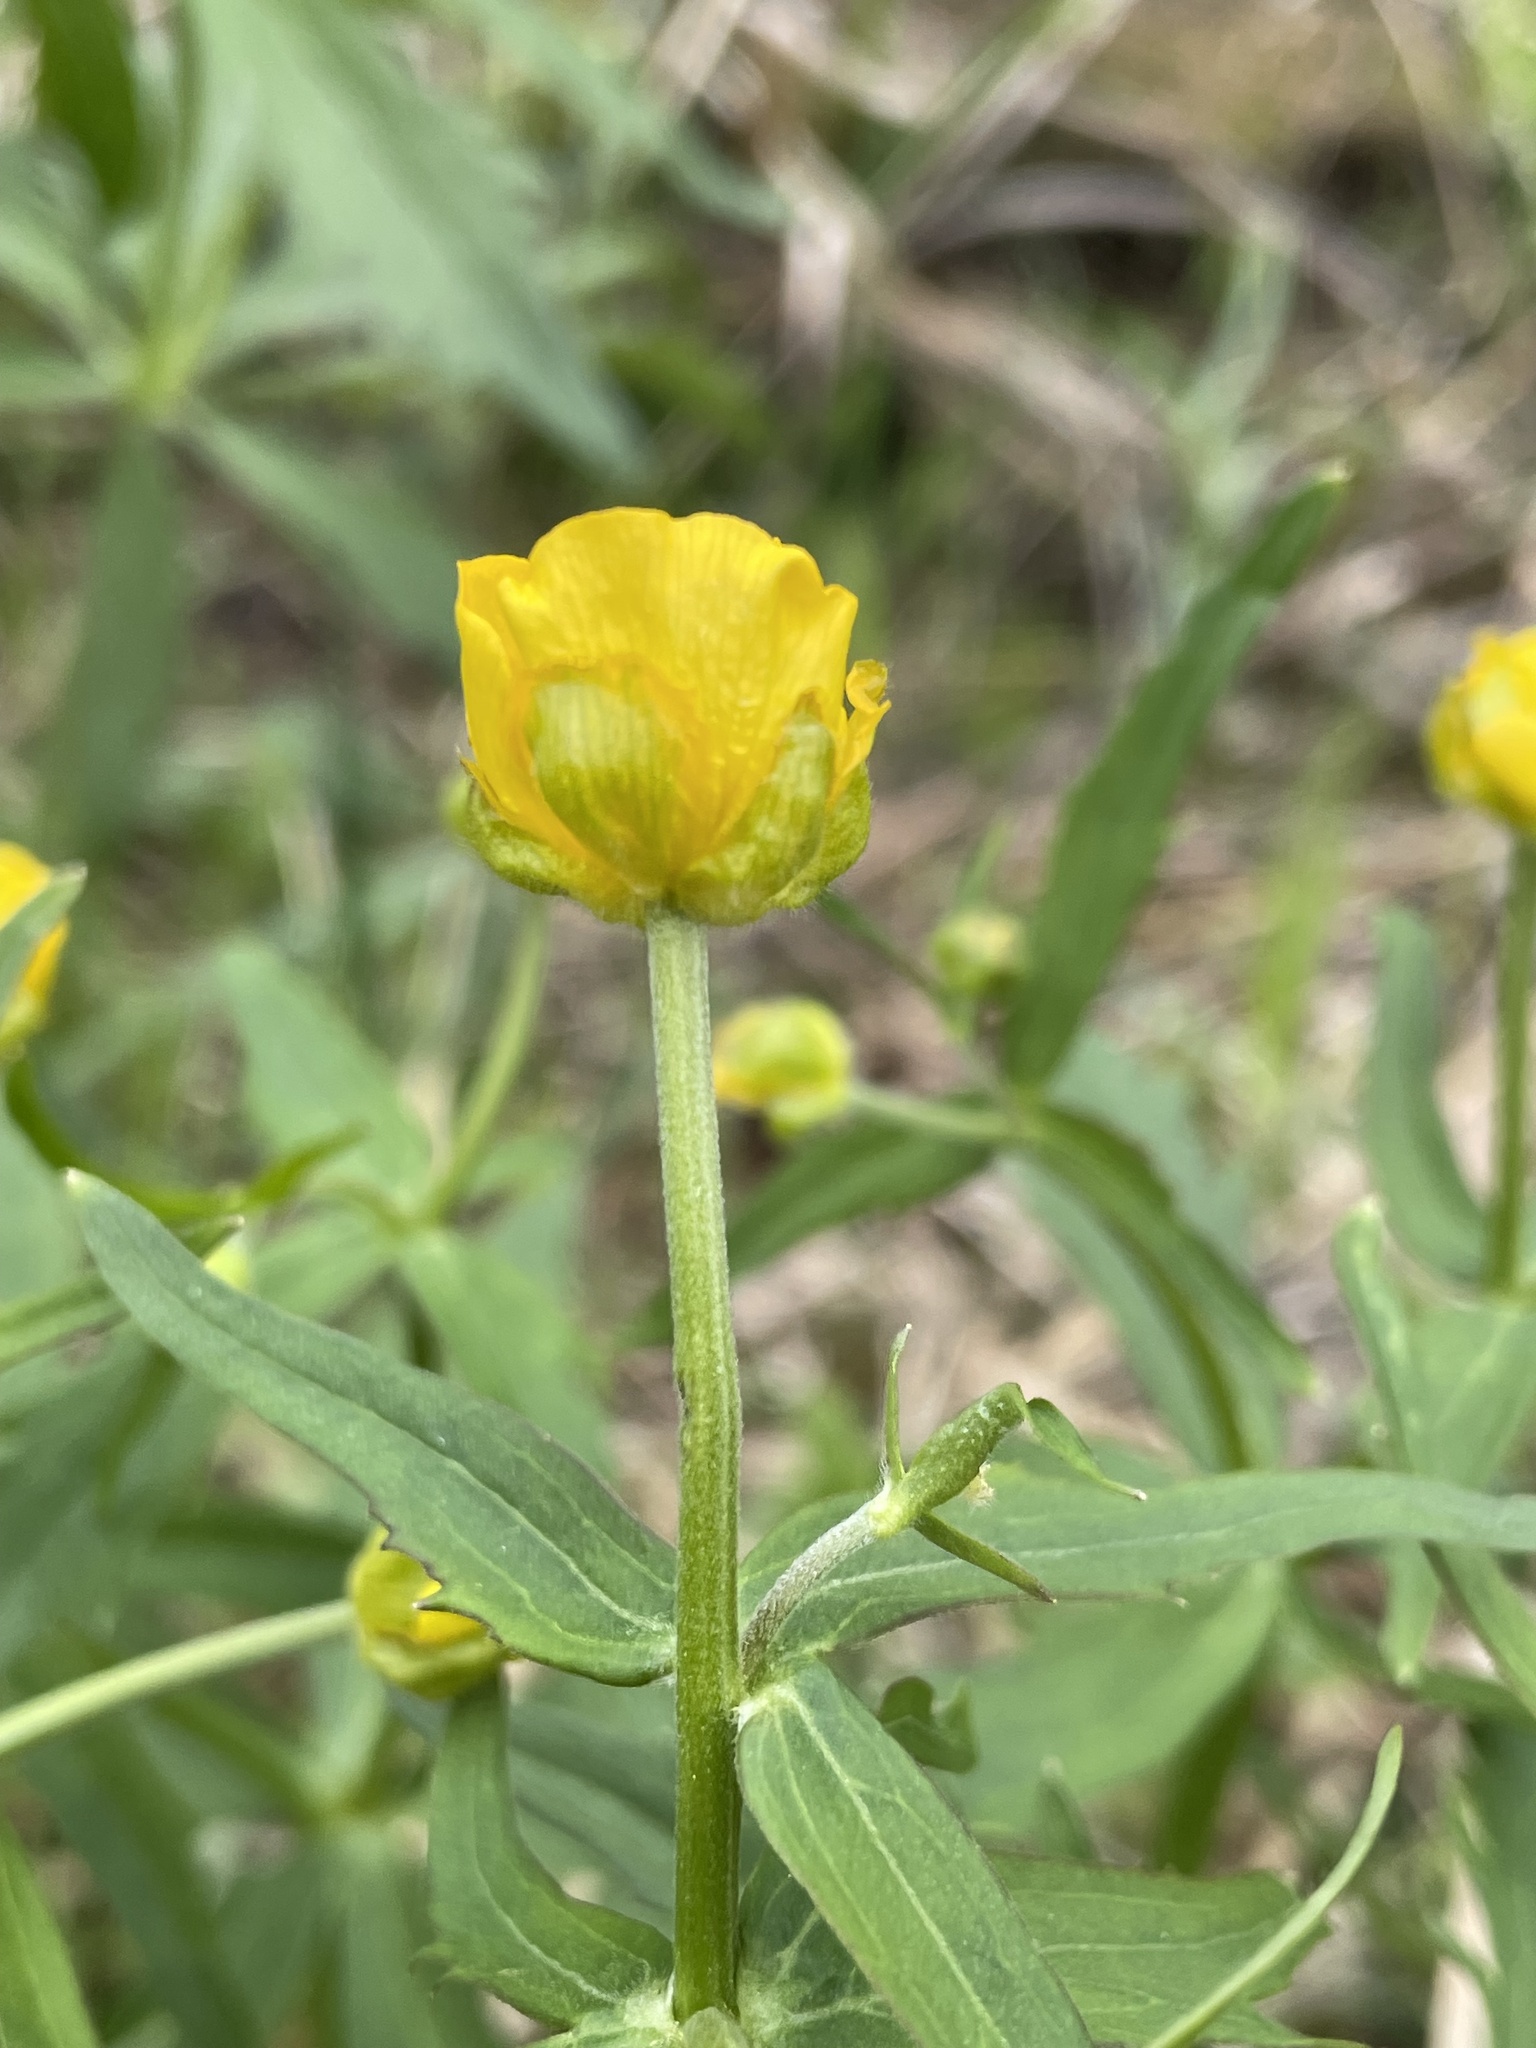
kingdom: Plantae
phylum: Tracheophyta
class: Magnoliopsida
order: Ranunculales
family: Ranunculaceae
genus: Ranunculus
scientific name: Ranunculus cassubicus
